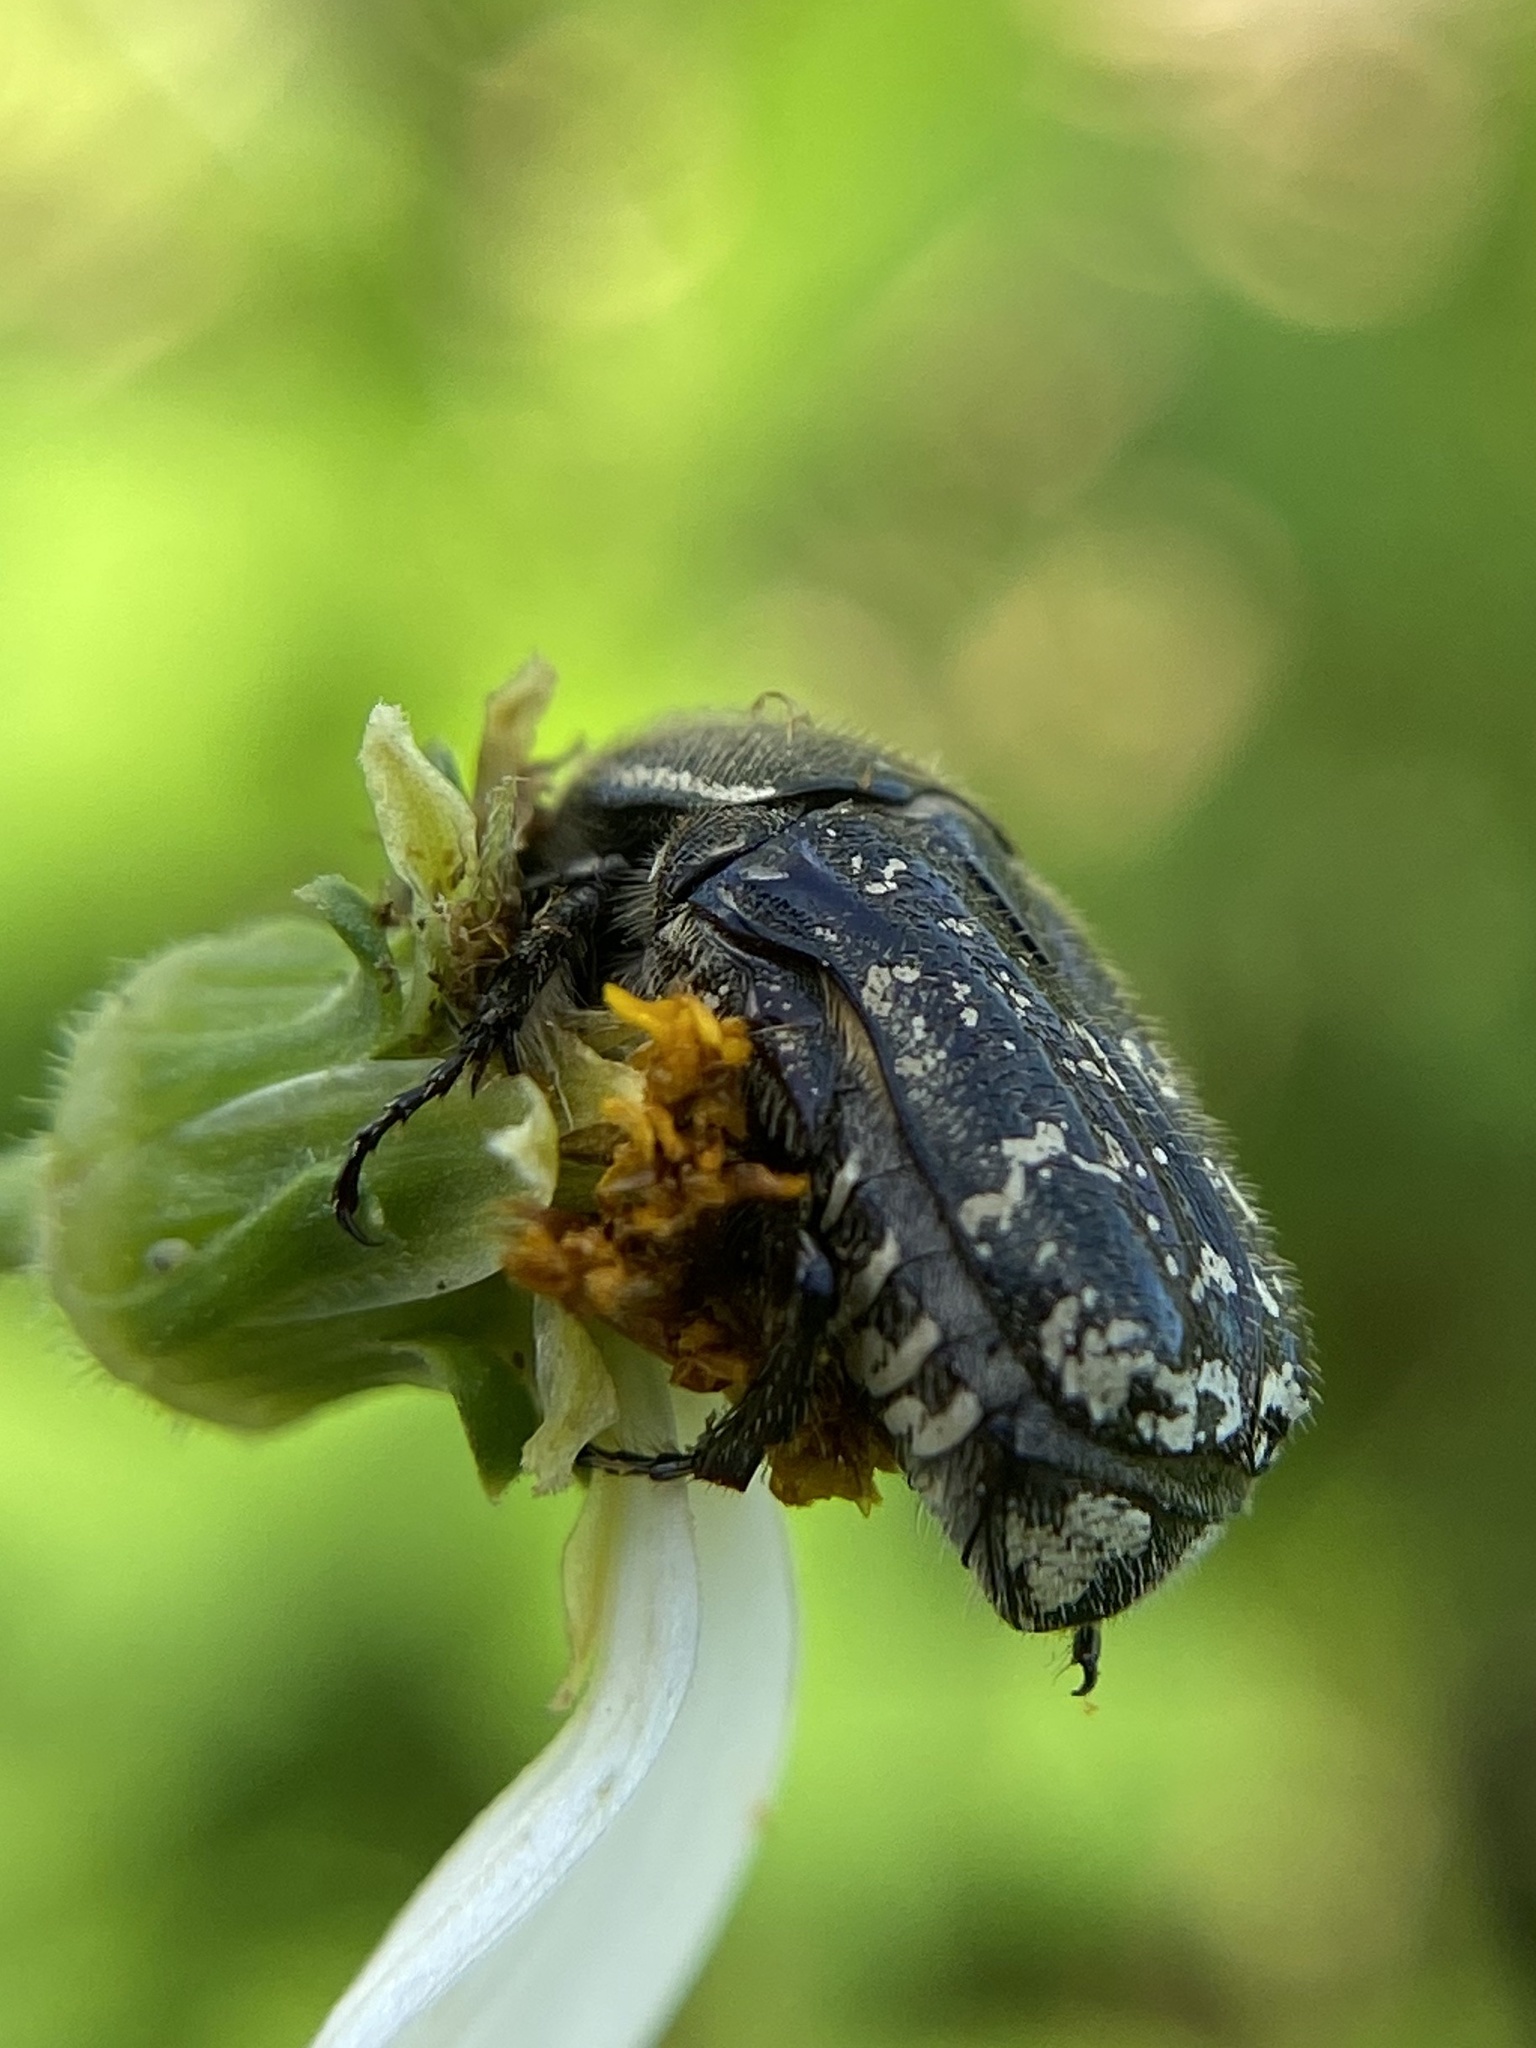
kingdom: Animalia
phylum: Arthropoda
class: Insecta
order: Coleoptera
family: Scarabaeidae
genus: Euphoria
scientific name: Euphoria sepulcralis
